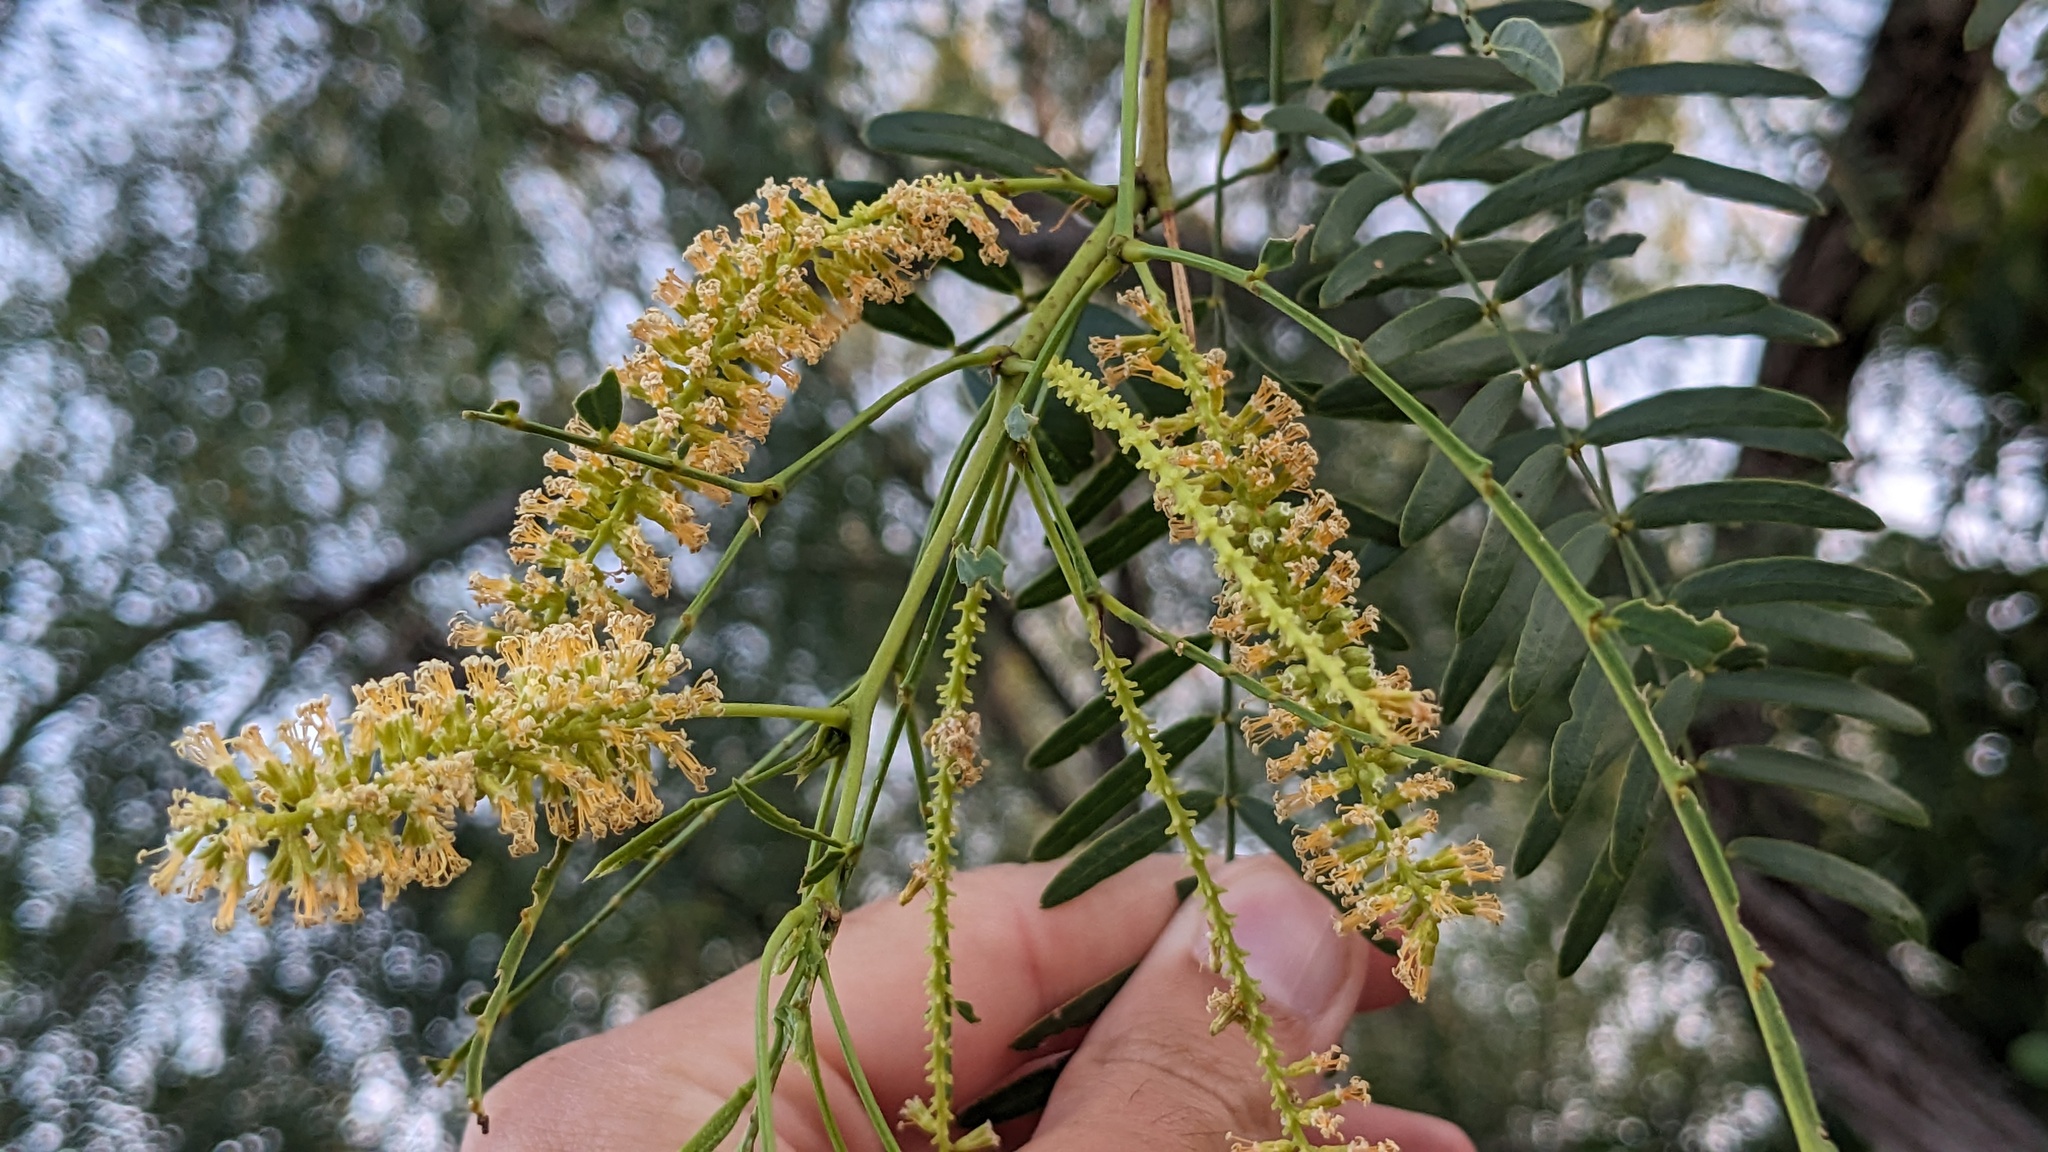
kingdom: Plantae
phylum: Tracheophyta
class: Magnoliopsida
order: Fabales
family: Fabaceae
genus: Prosopis
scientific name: Prosopis glandulosa
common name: Honey mesquite
